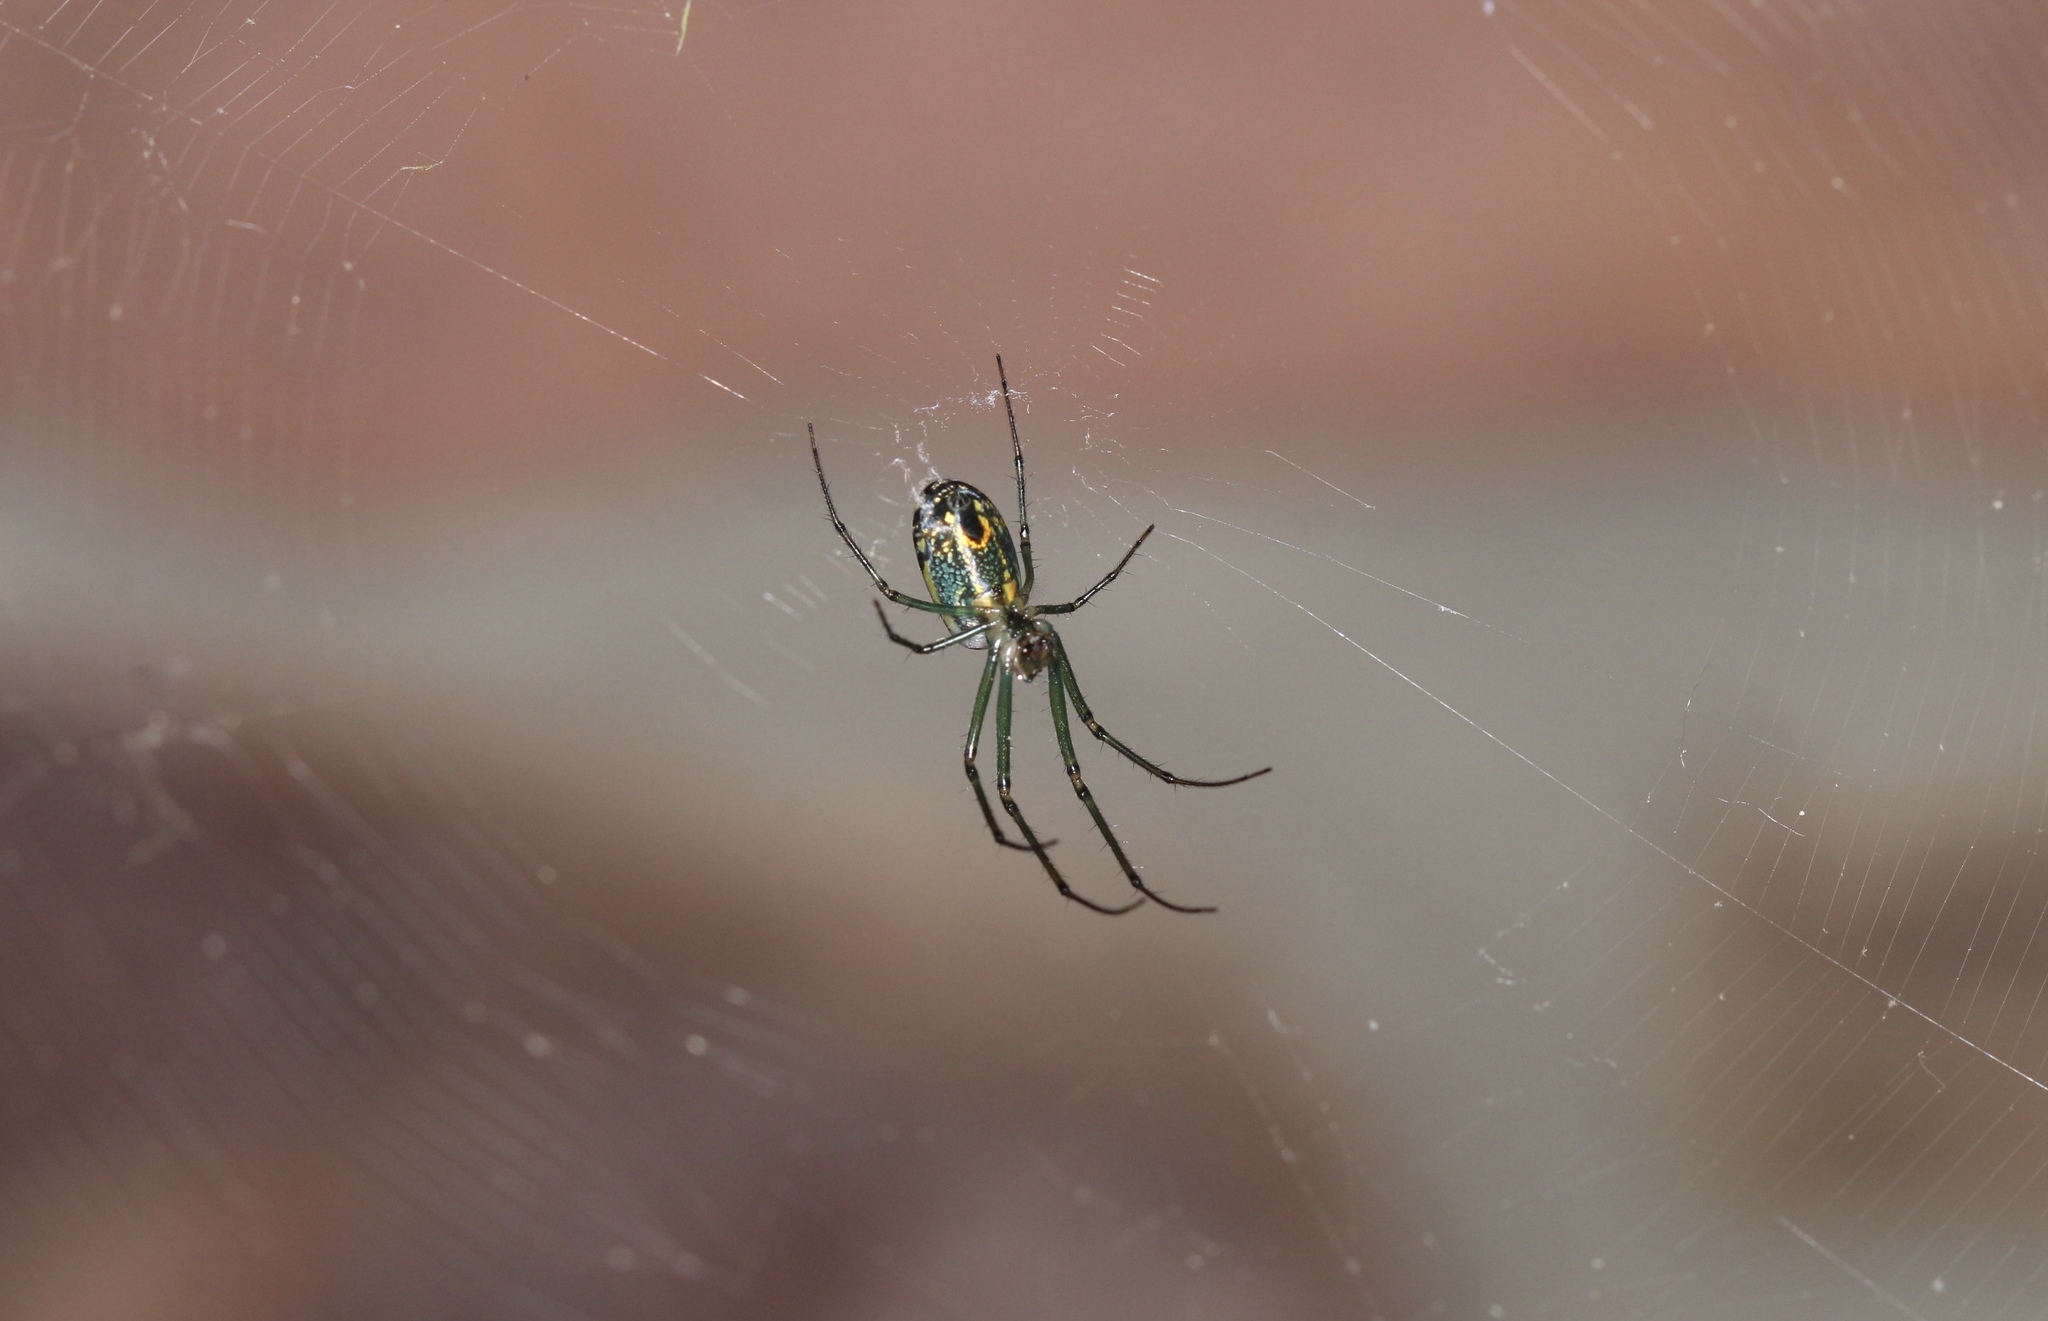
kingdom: Animalia
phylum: Arthropoda
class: Arachnida
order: Araneae
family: Tetragnathidae
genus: Leucauge
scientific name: Leucauge venusta
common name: Longjawed orb weavers
